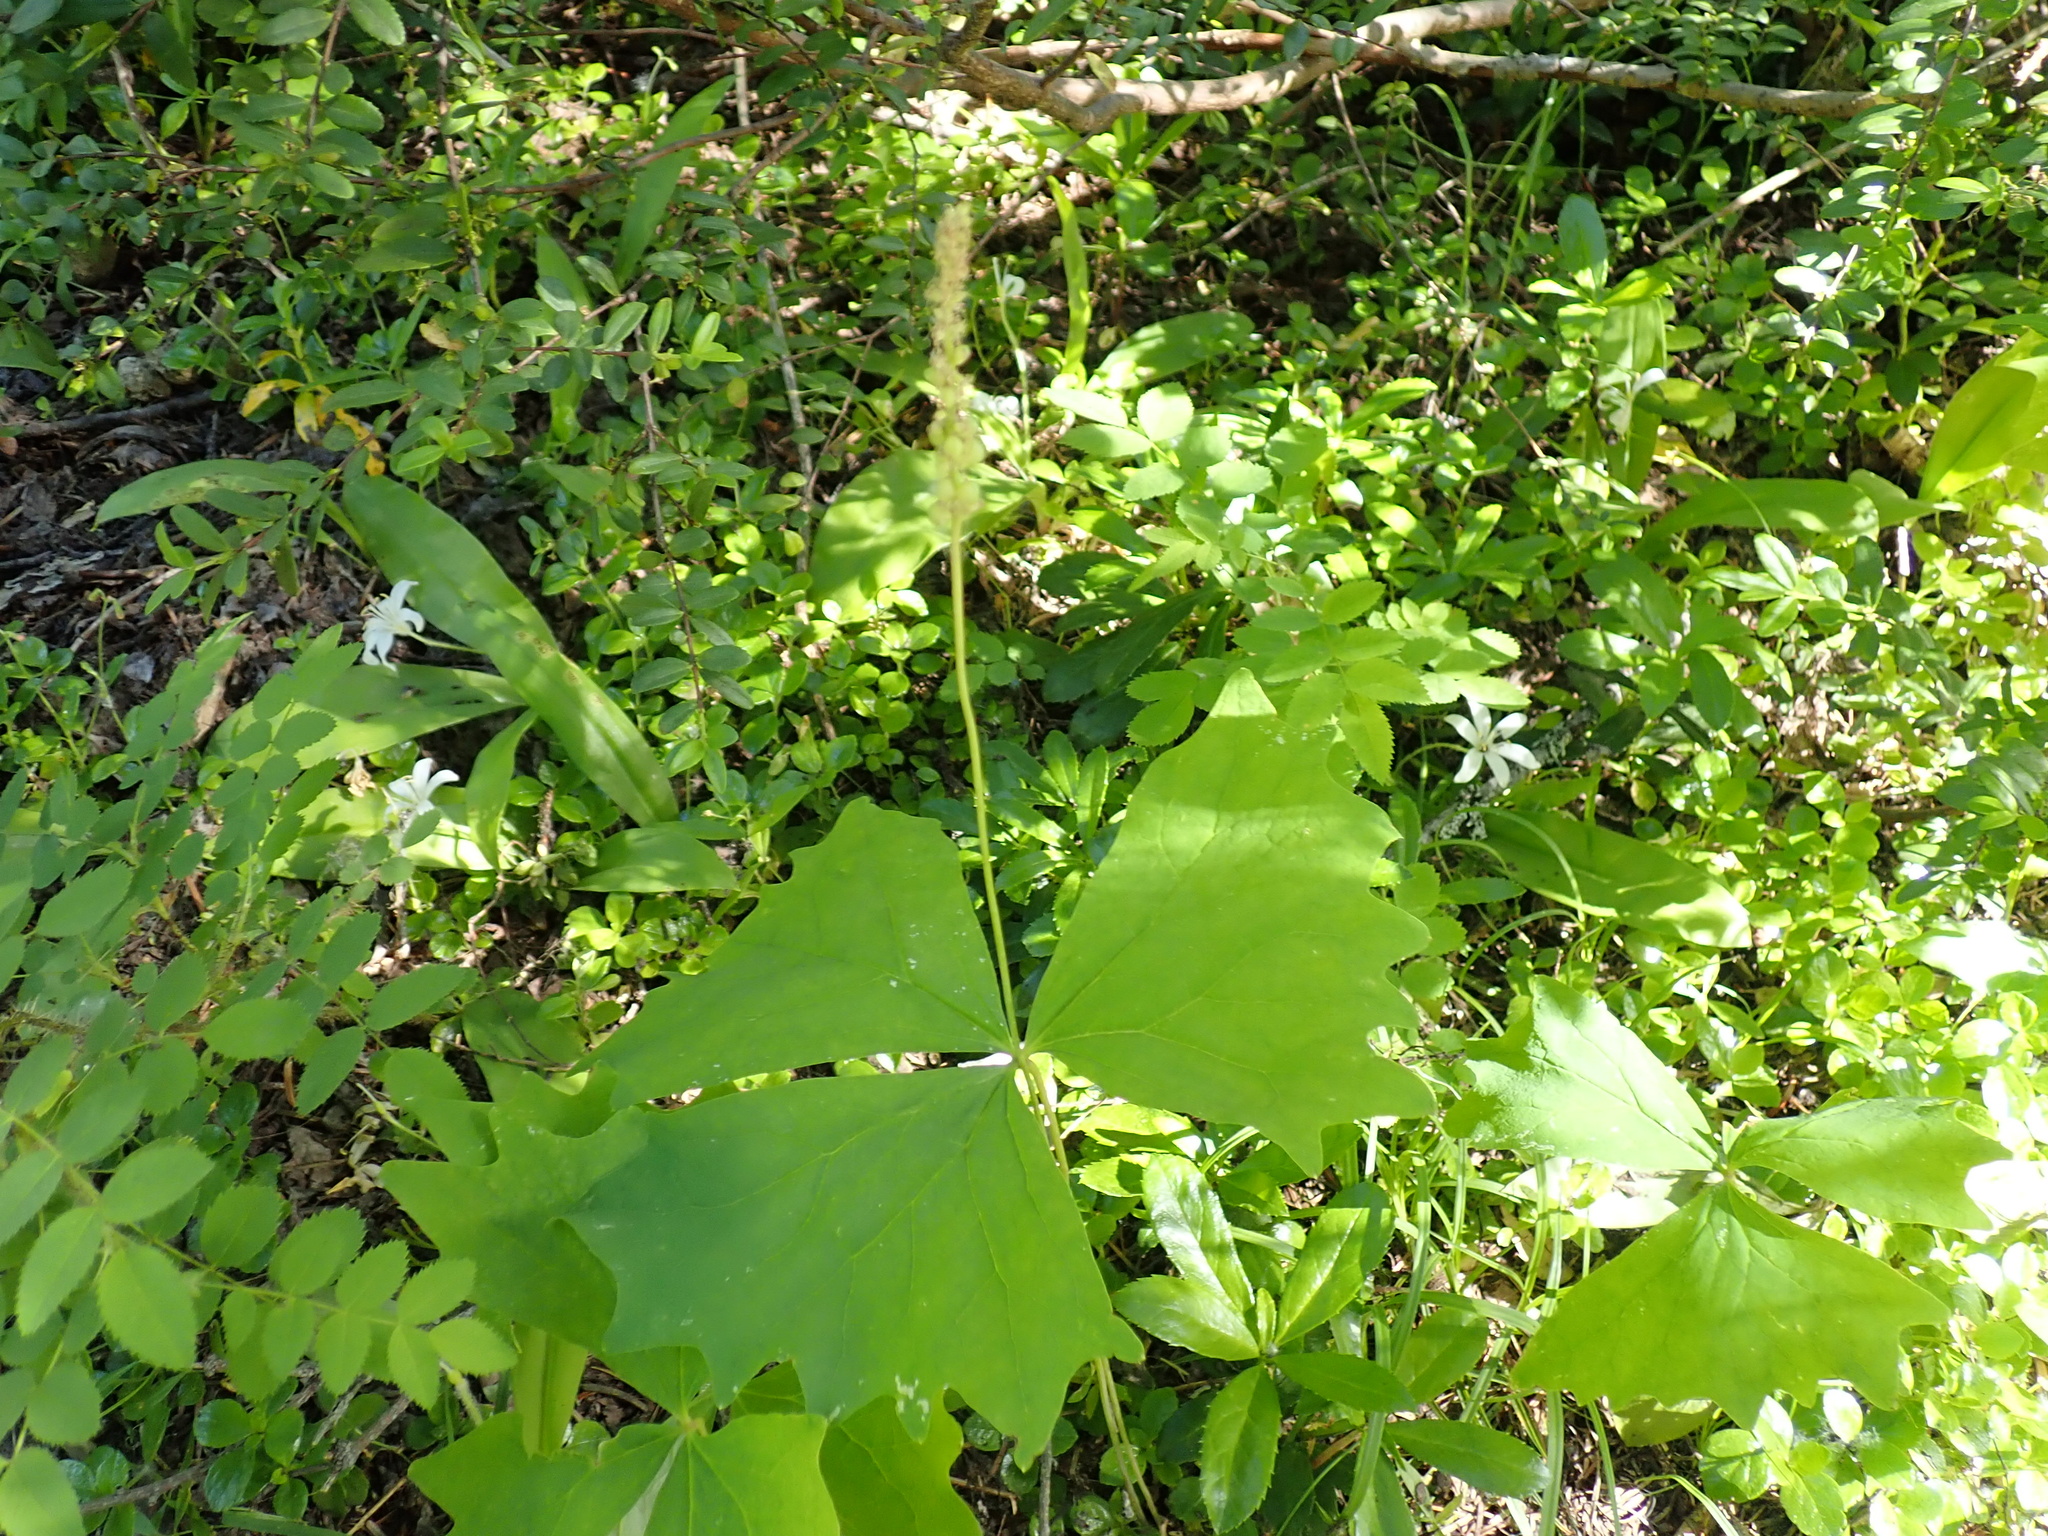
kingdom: Plantae
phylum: Tracheophyta
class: Magnoliopsida
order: Ranunculales
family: Berberidaceae
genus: Achlys
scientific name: Achlys triphylla
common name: Vanilla-leaf
